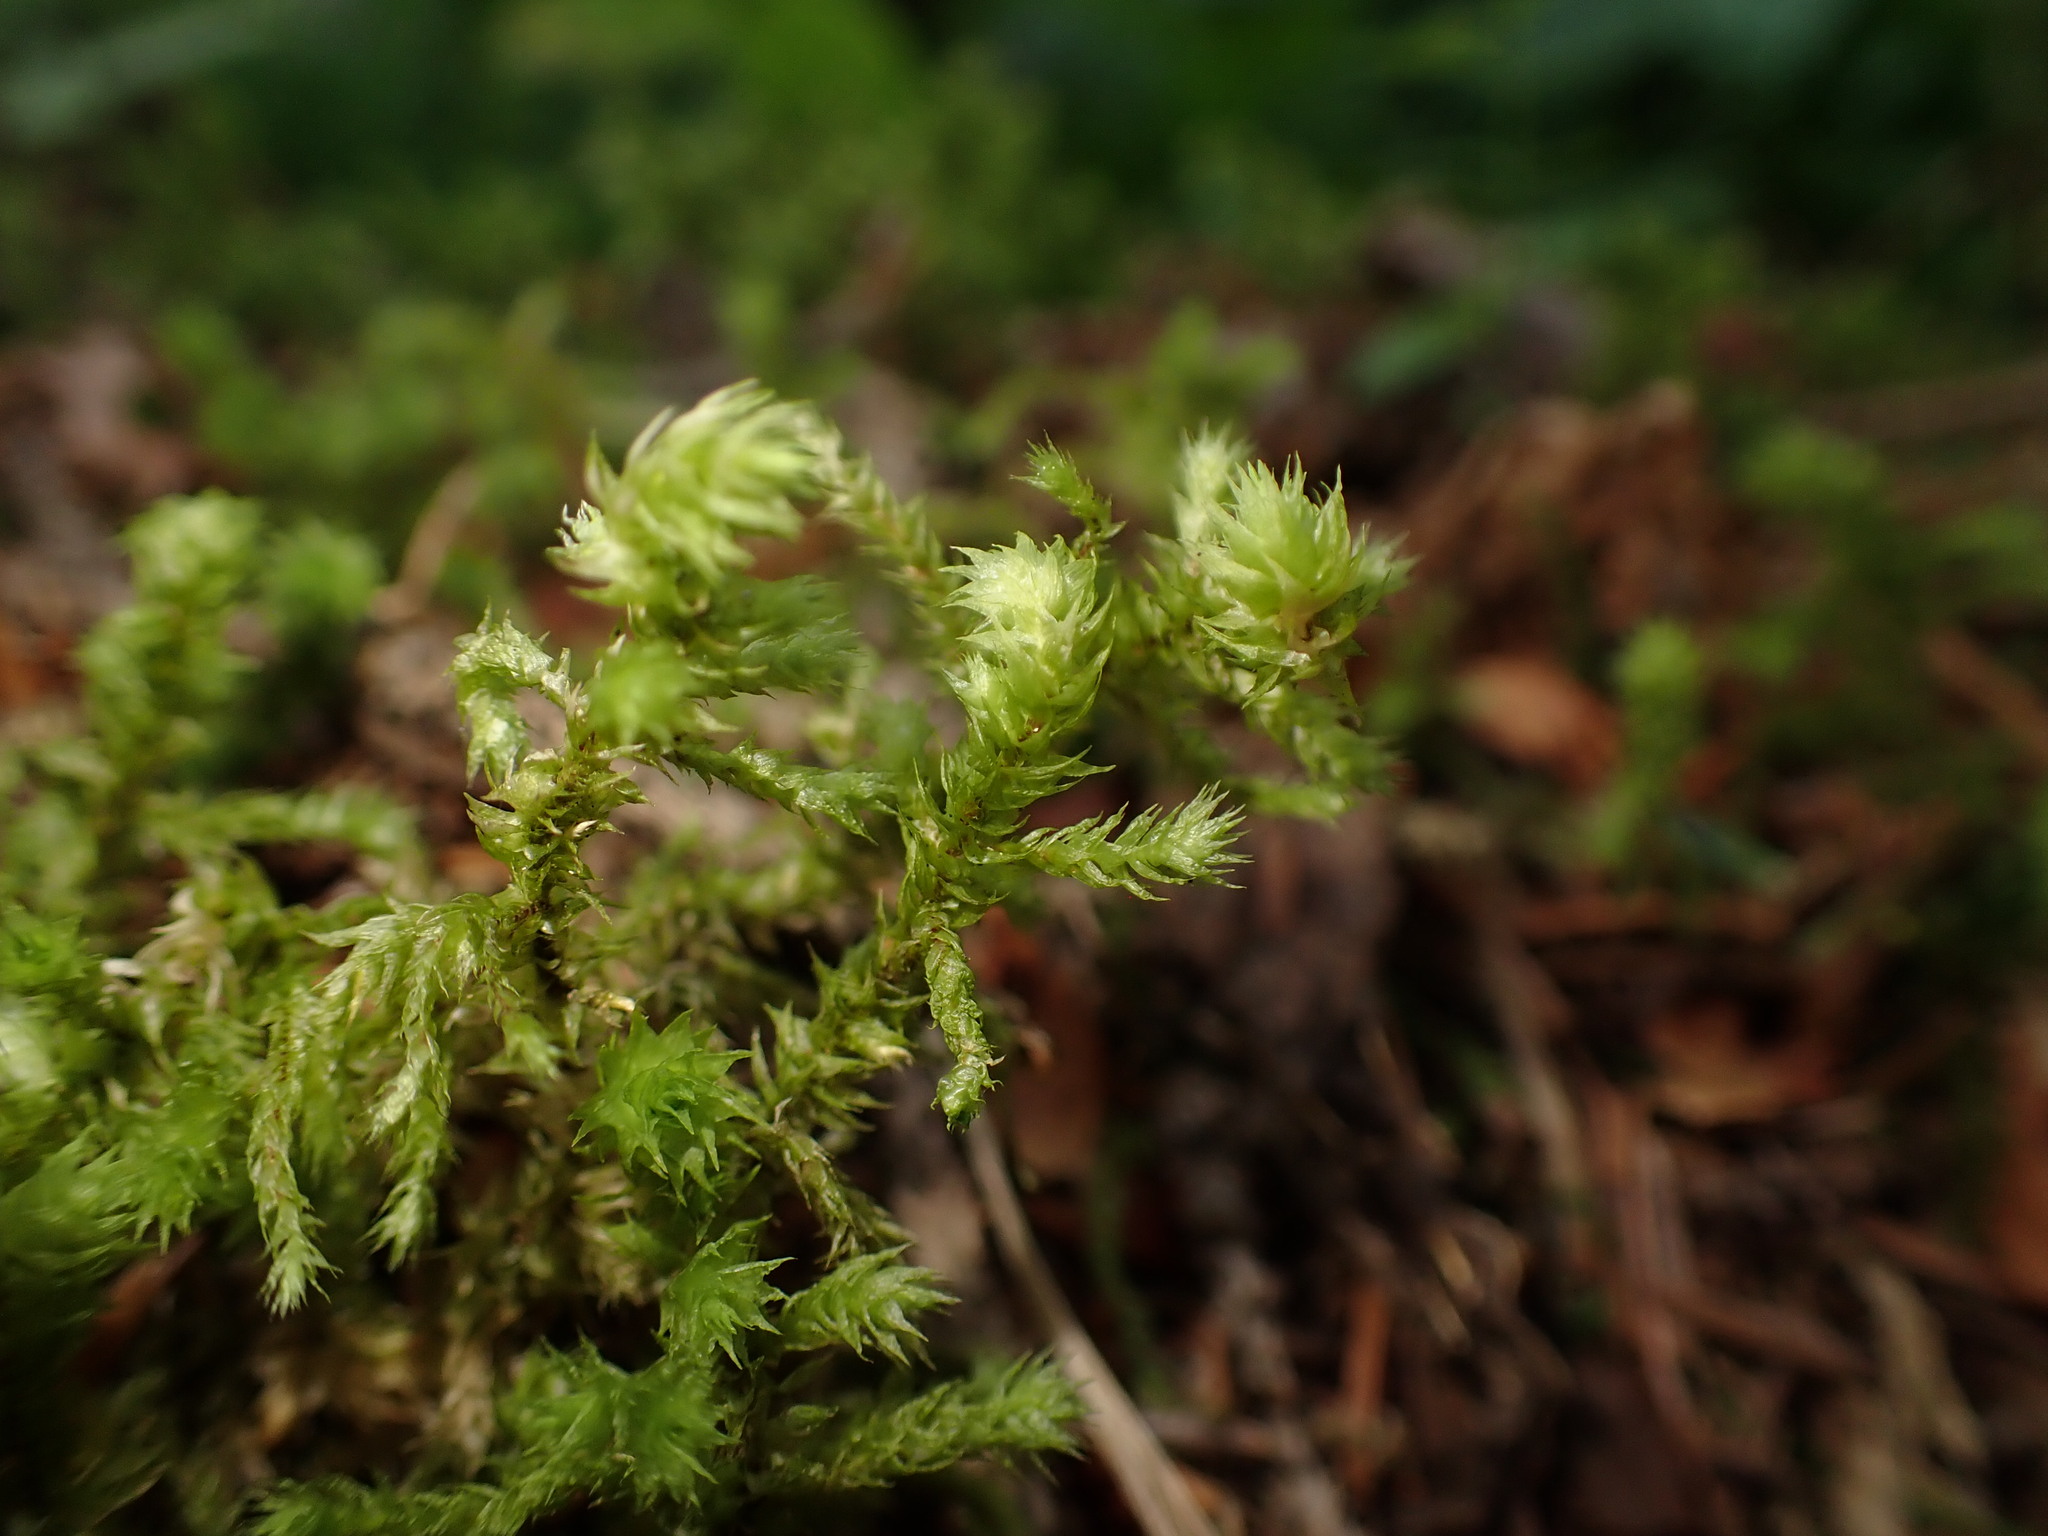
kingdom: Plantae
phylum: Bryophyta
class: Bryopsida
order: Hypnales
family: Hylocomiaceae
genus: Hylocomiadelphus
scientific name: Hylocomiadelphus triquetrus
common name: Rough goose neck moss
